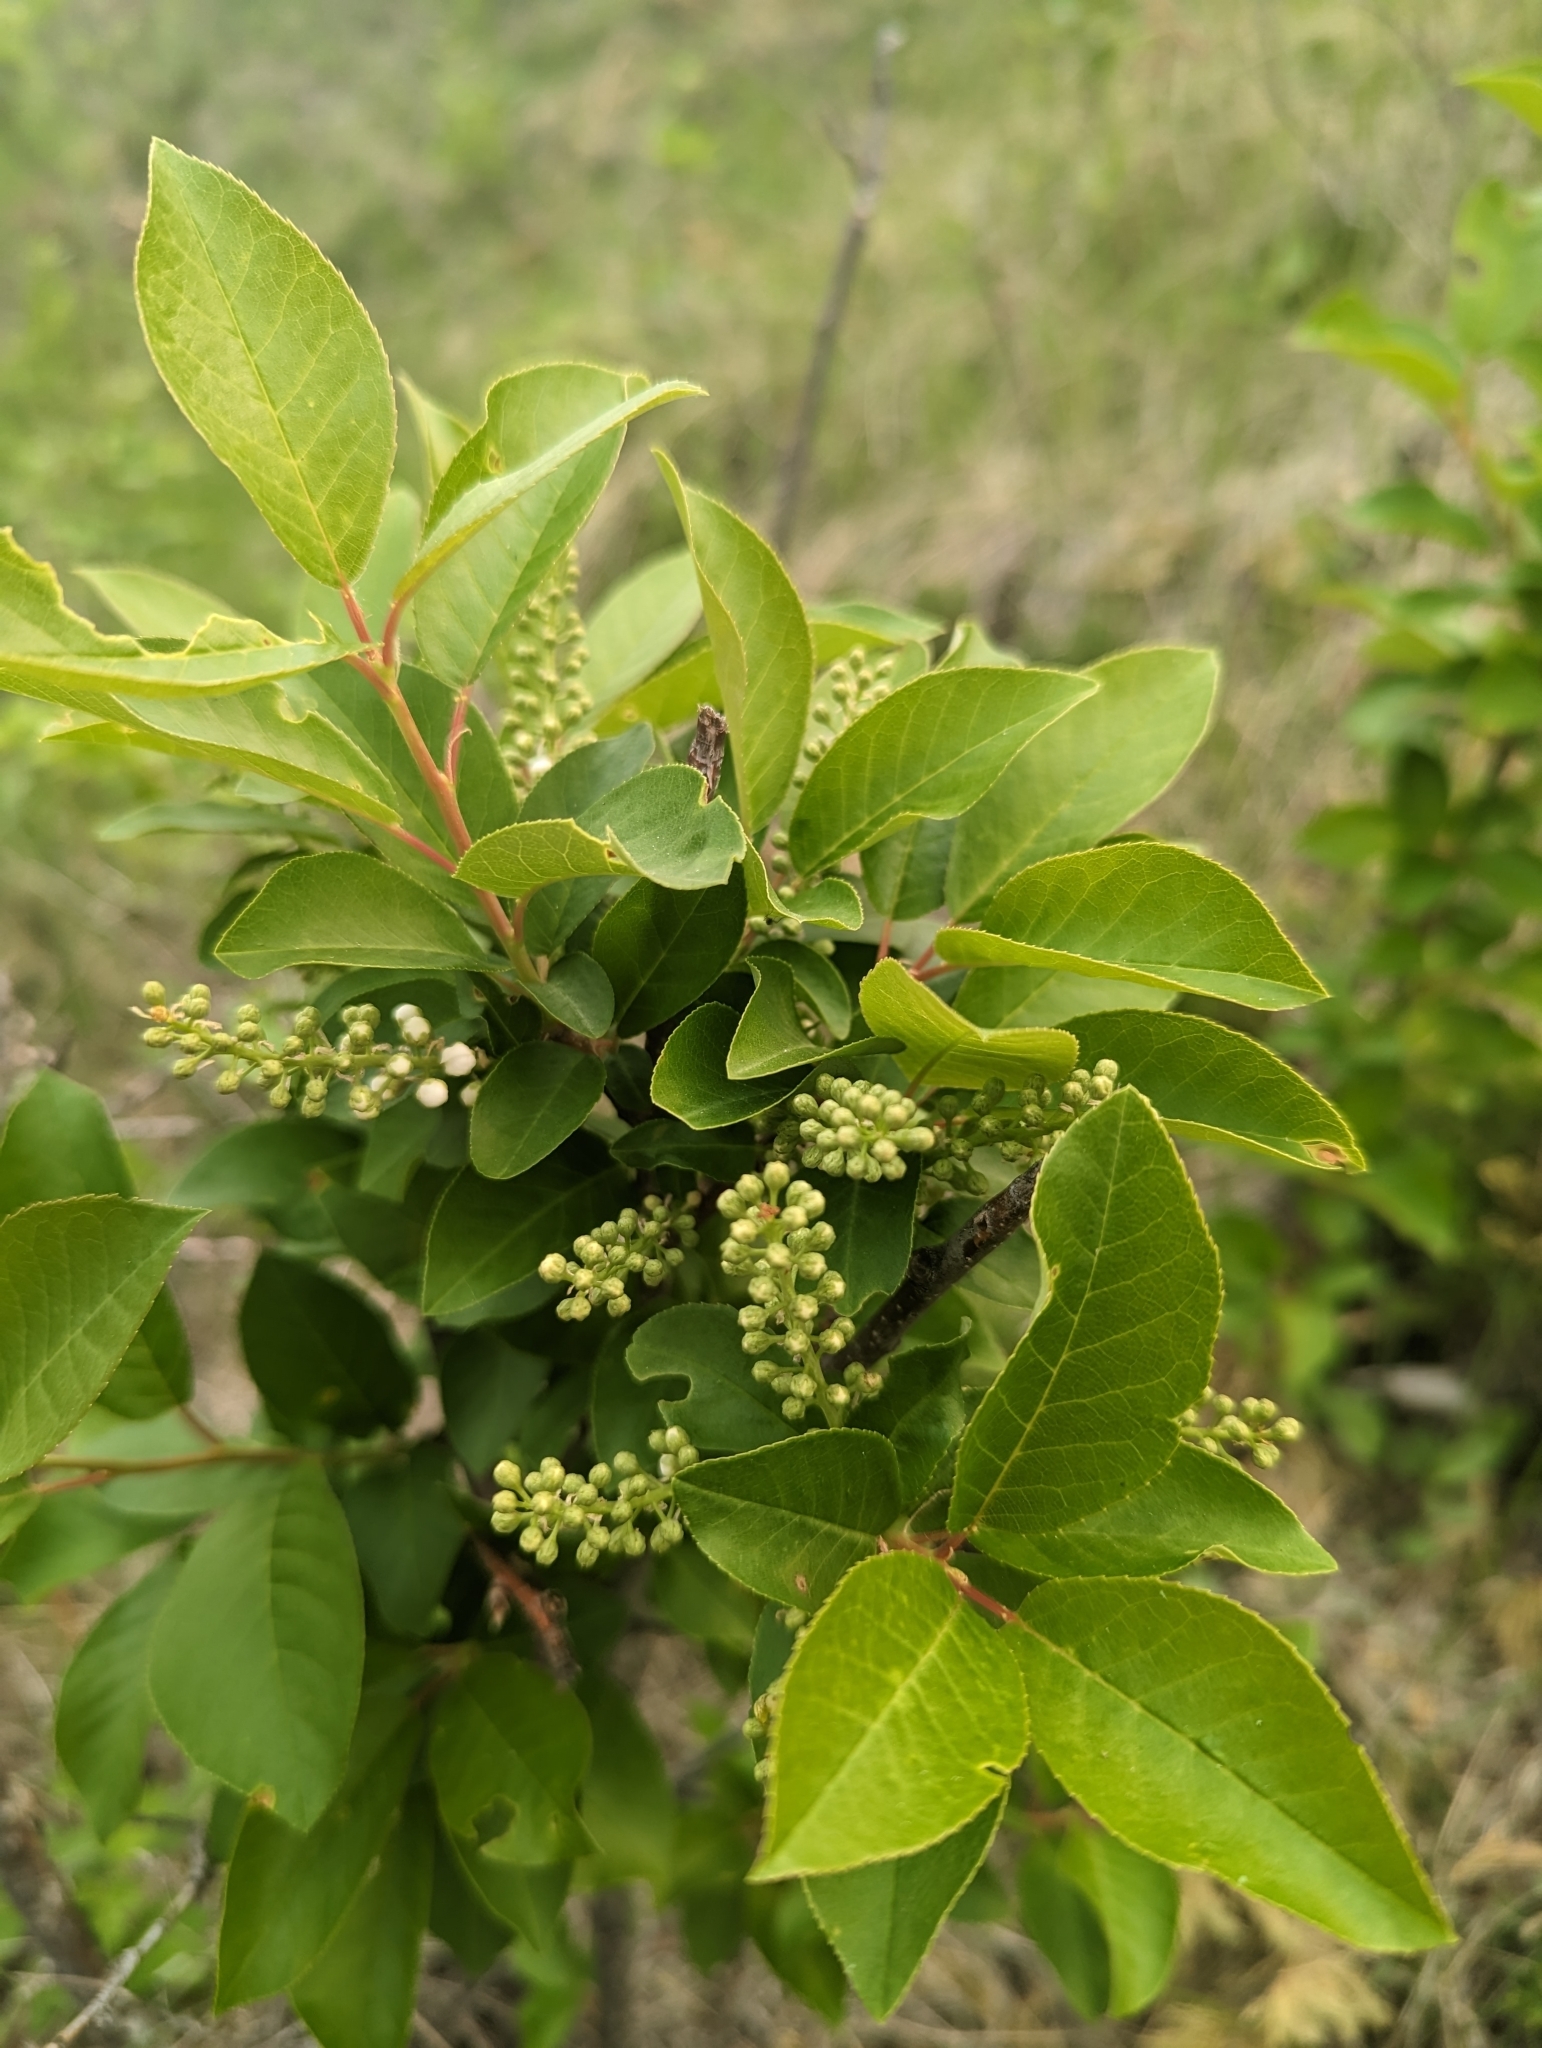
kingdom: Plantae
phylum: Tracheophyta
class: Magnoliopsida
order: Rosales
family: Rosaceae
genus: Prunus
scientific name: Prunus virginiana
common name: Chokecherry
